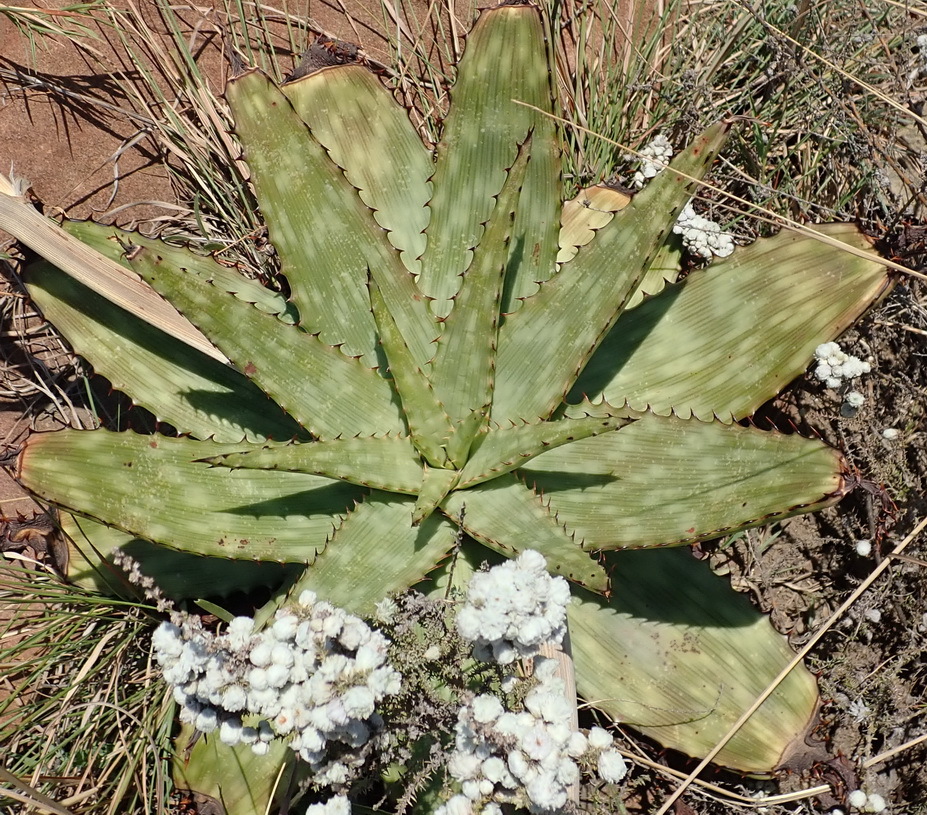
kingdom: Plantae
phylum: Tracheophyta
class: Liliopsida
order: Asparagales
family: Asphodelaceae
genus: Aloe
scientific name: Aloe davyana
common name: Spotted aloe
